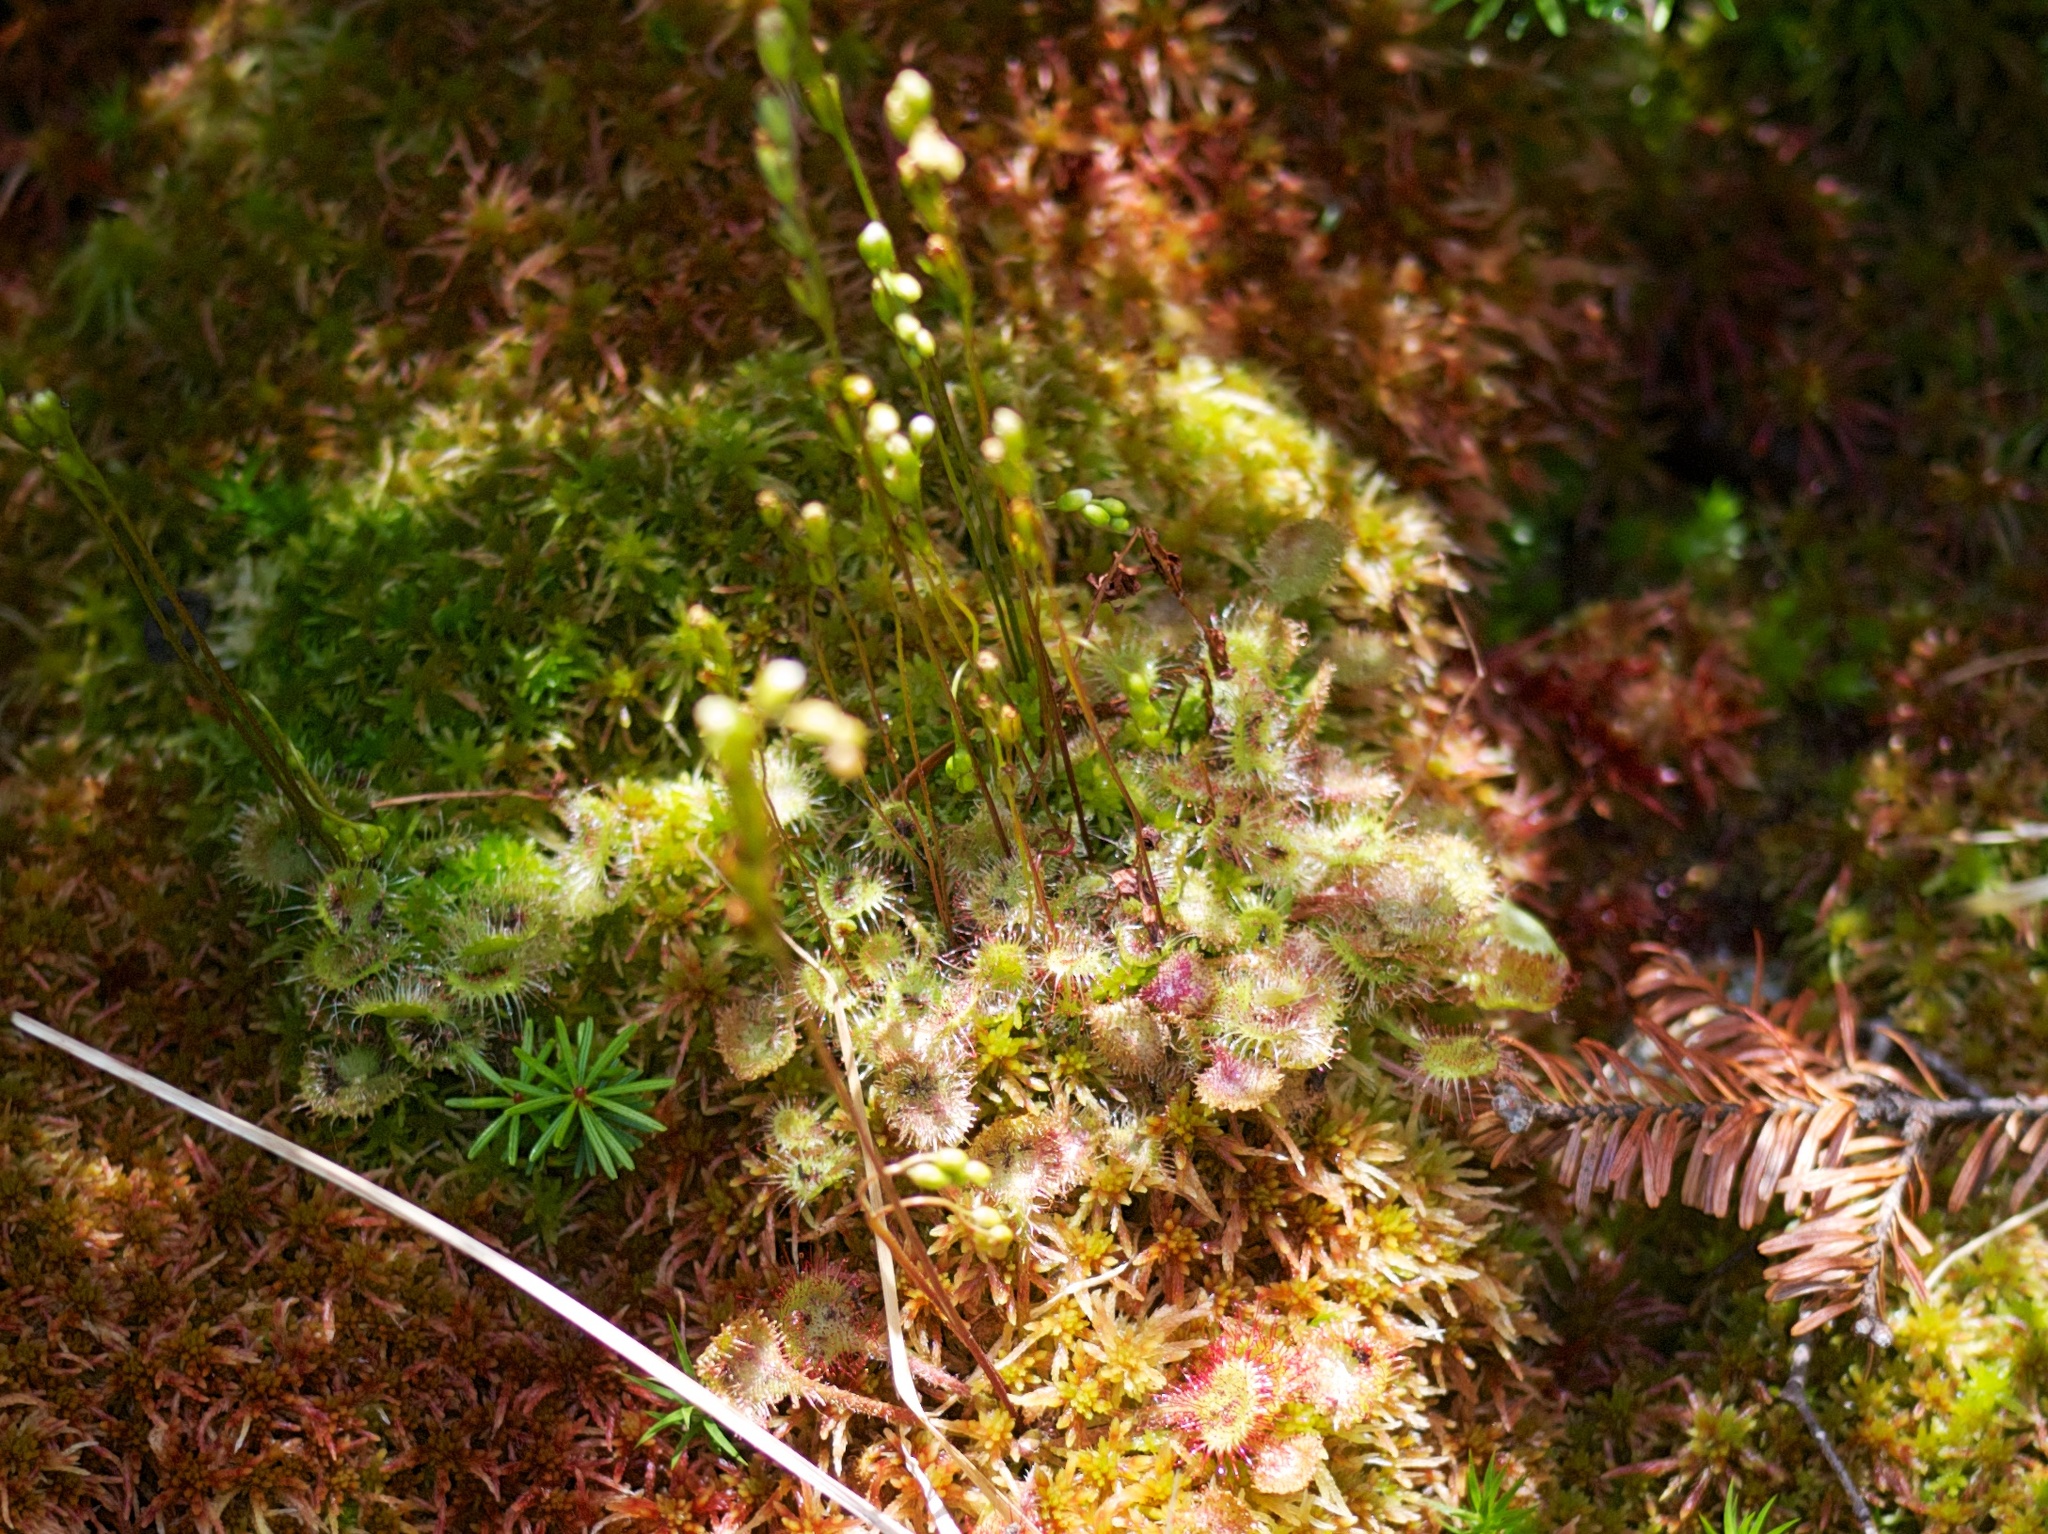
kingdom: Plantae
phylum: Tracheophyta
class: Magnoliopsida
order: Caryophyllales
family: Droseraceae
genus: Drosera
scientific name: Drosera rotundifolia
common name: Round-leaved sundew
